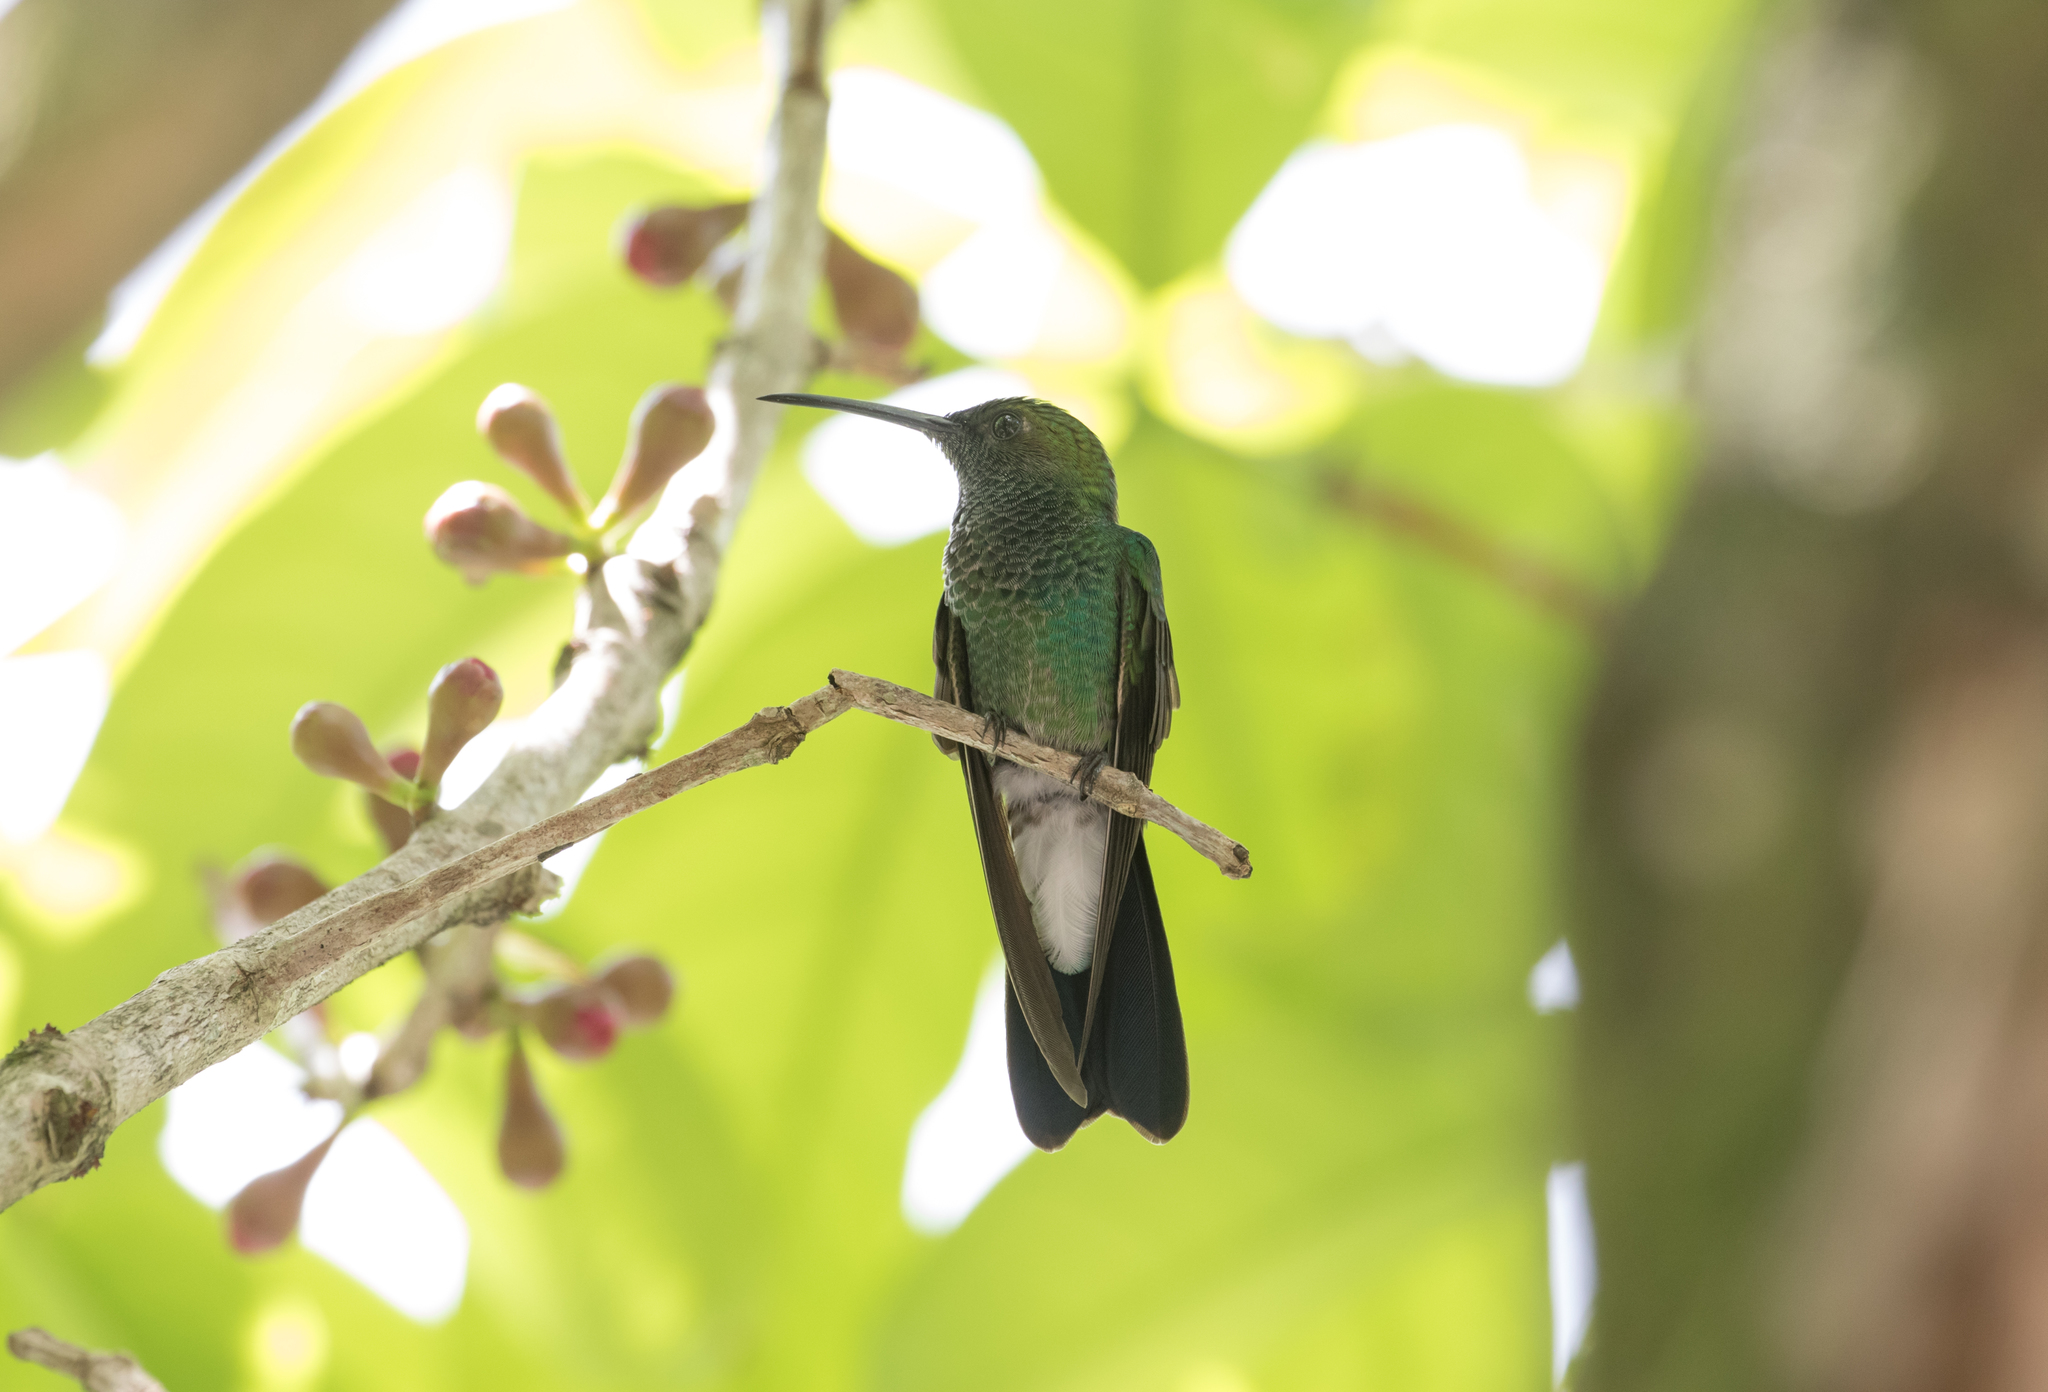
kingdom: Animalia
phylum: Chordata
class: Aves
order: Apodiformes
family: Trochilidae
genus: Chalybura
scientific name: Chalybura buffonii
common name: White-vented plumeleteer
